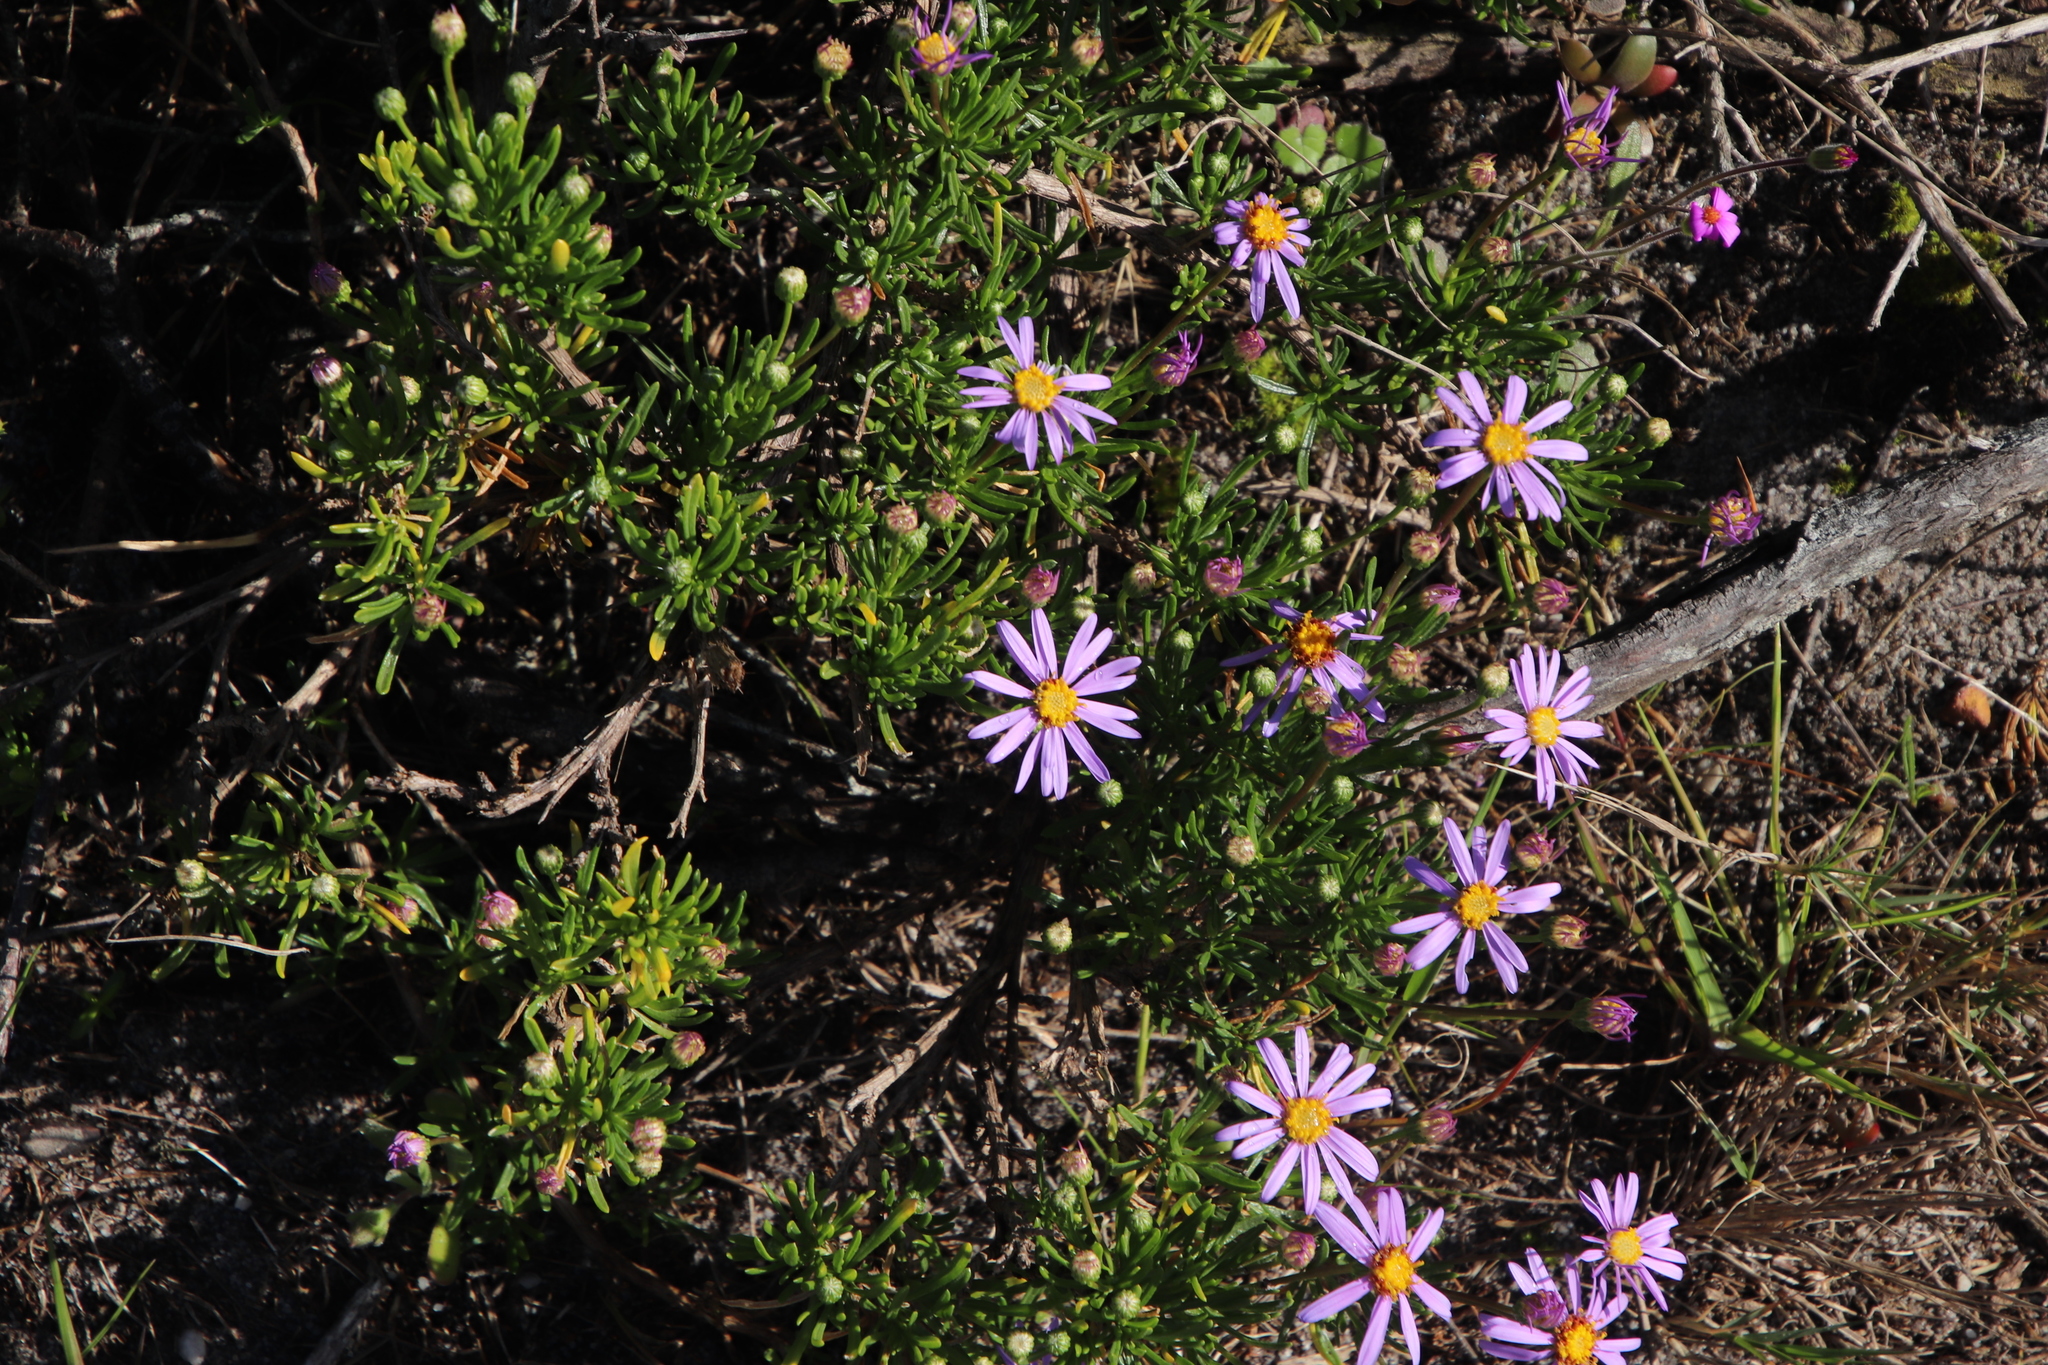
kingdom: Plantae
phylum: Tracheophyta
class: Magnoliopsida
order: Asterales
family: Asteraceae
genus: Felicia
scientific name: Felicia fruticosa
